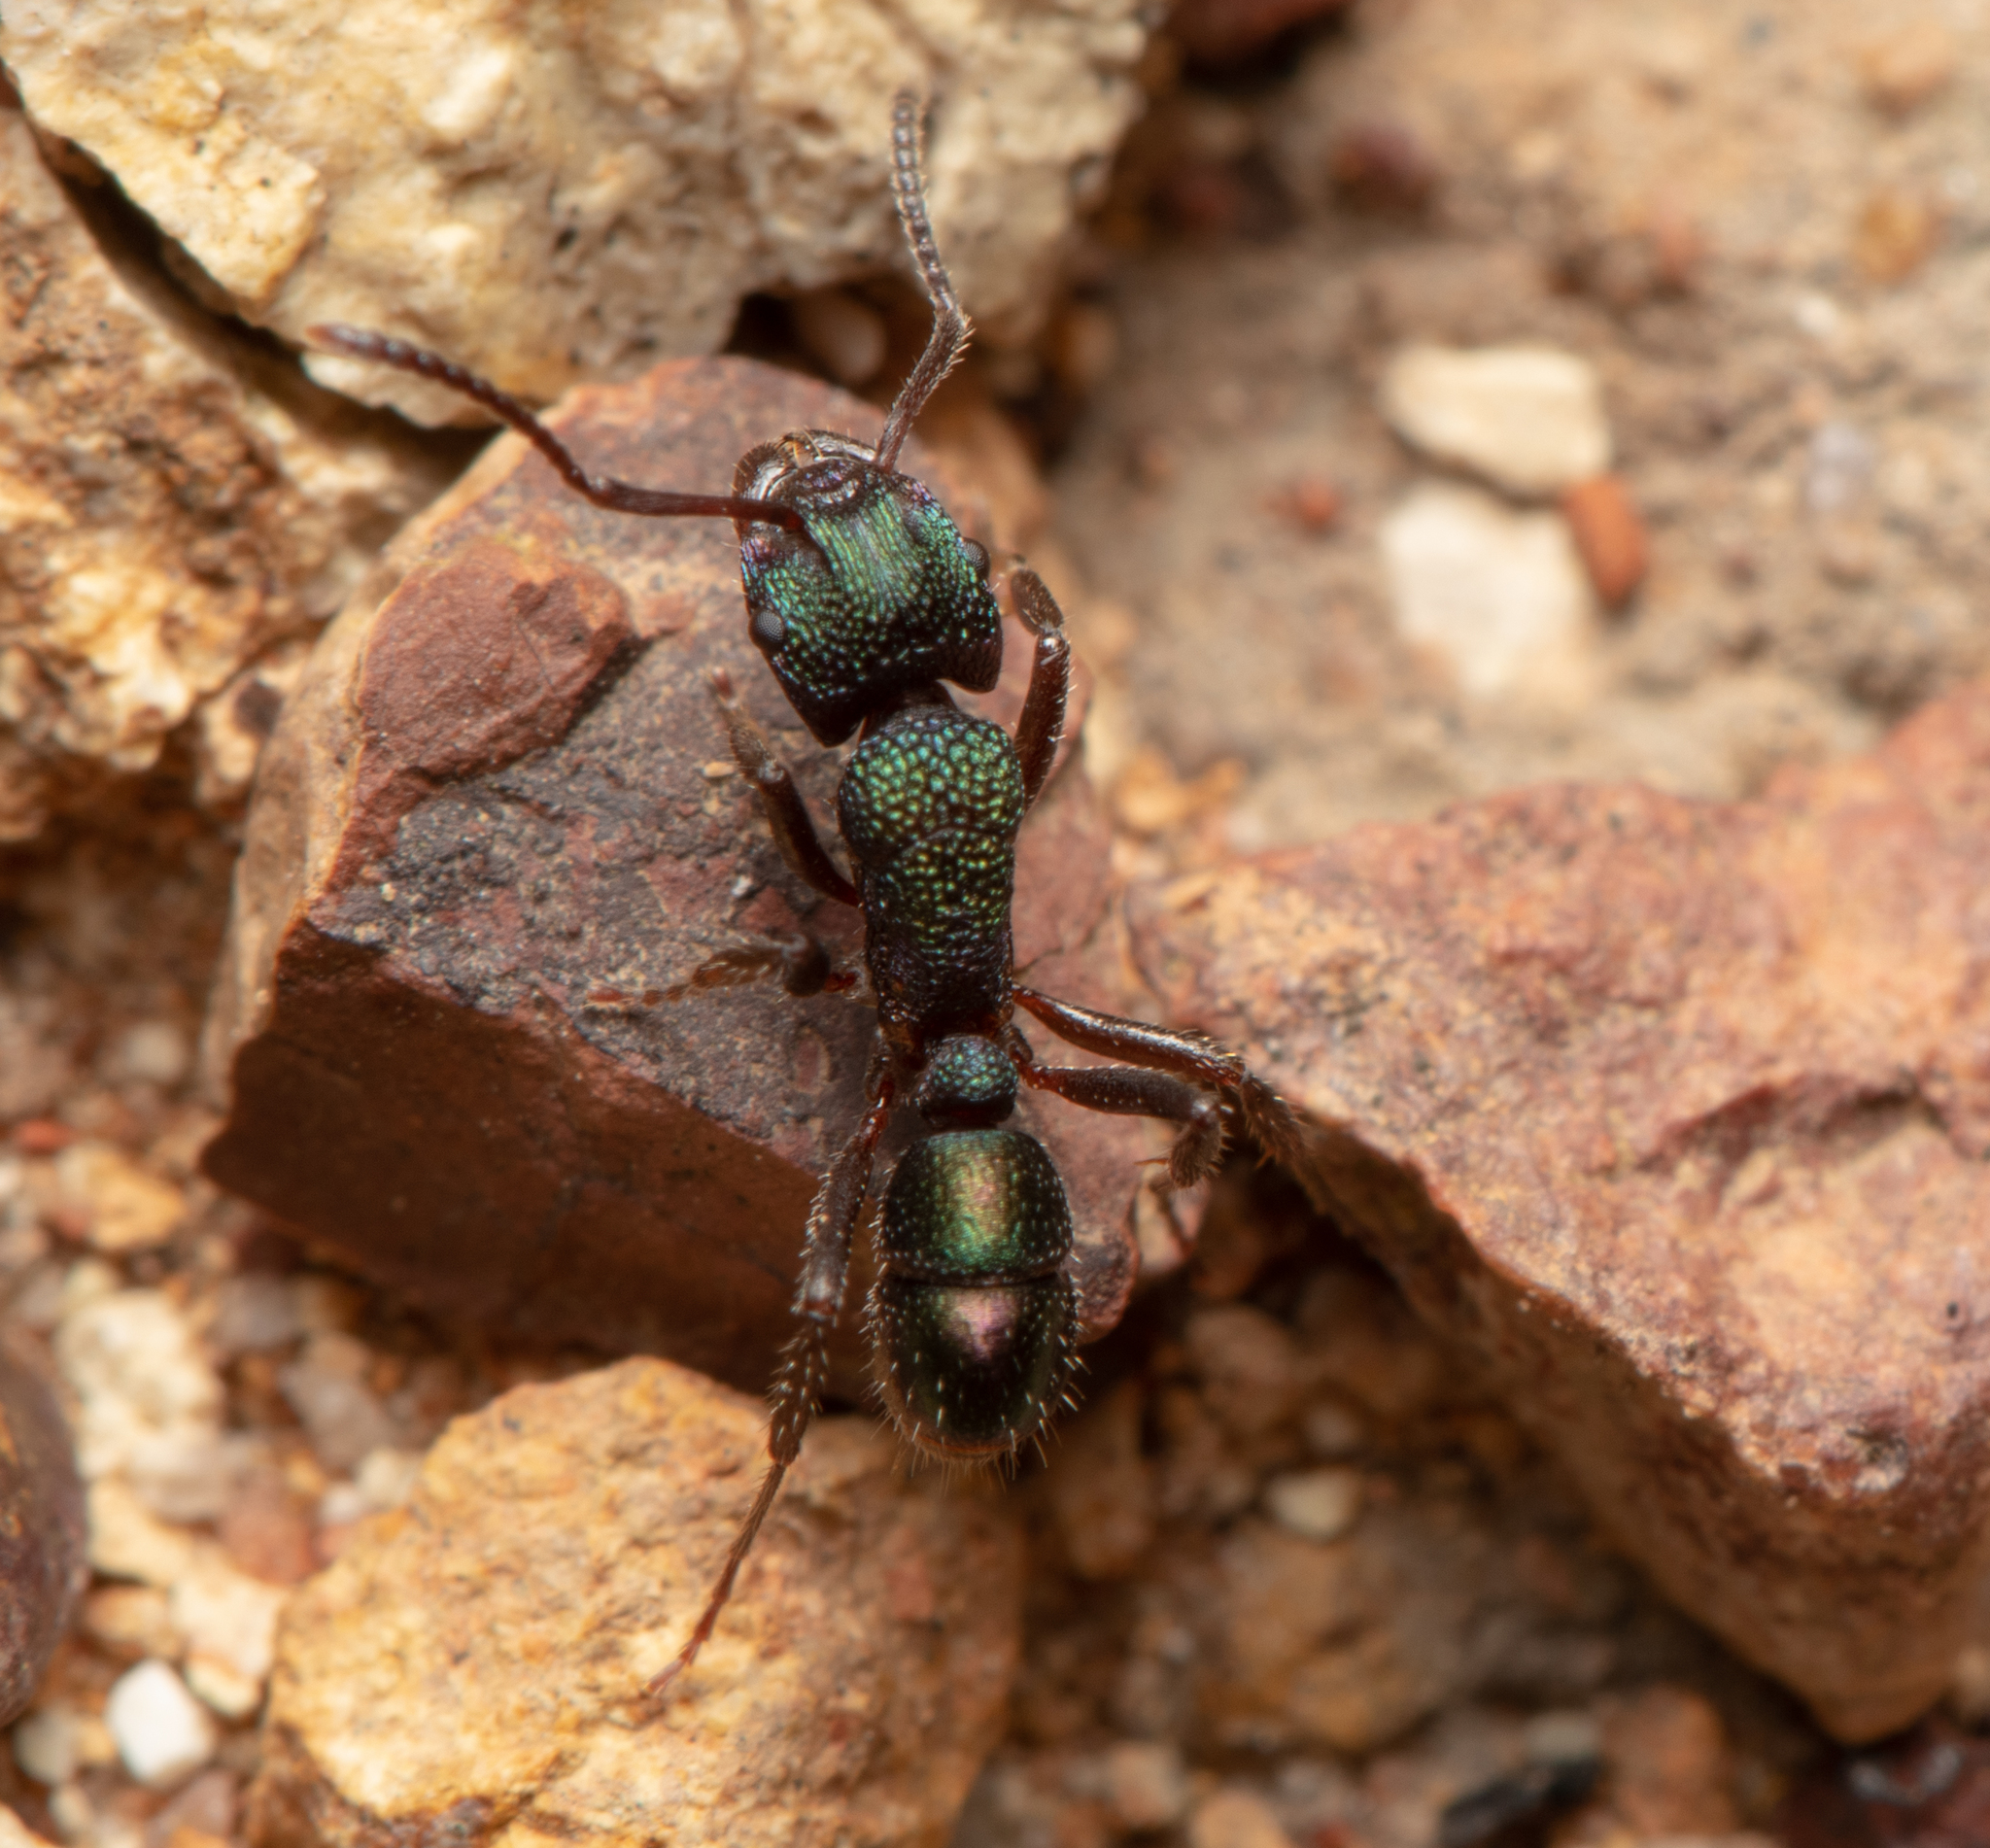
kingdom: Animalia
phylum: Arthropoda
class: Insecta
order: Hymenoptera
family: Formicidae
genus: Rhytidoponera
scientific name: Rhytidoponera metallica
